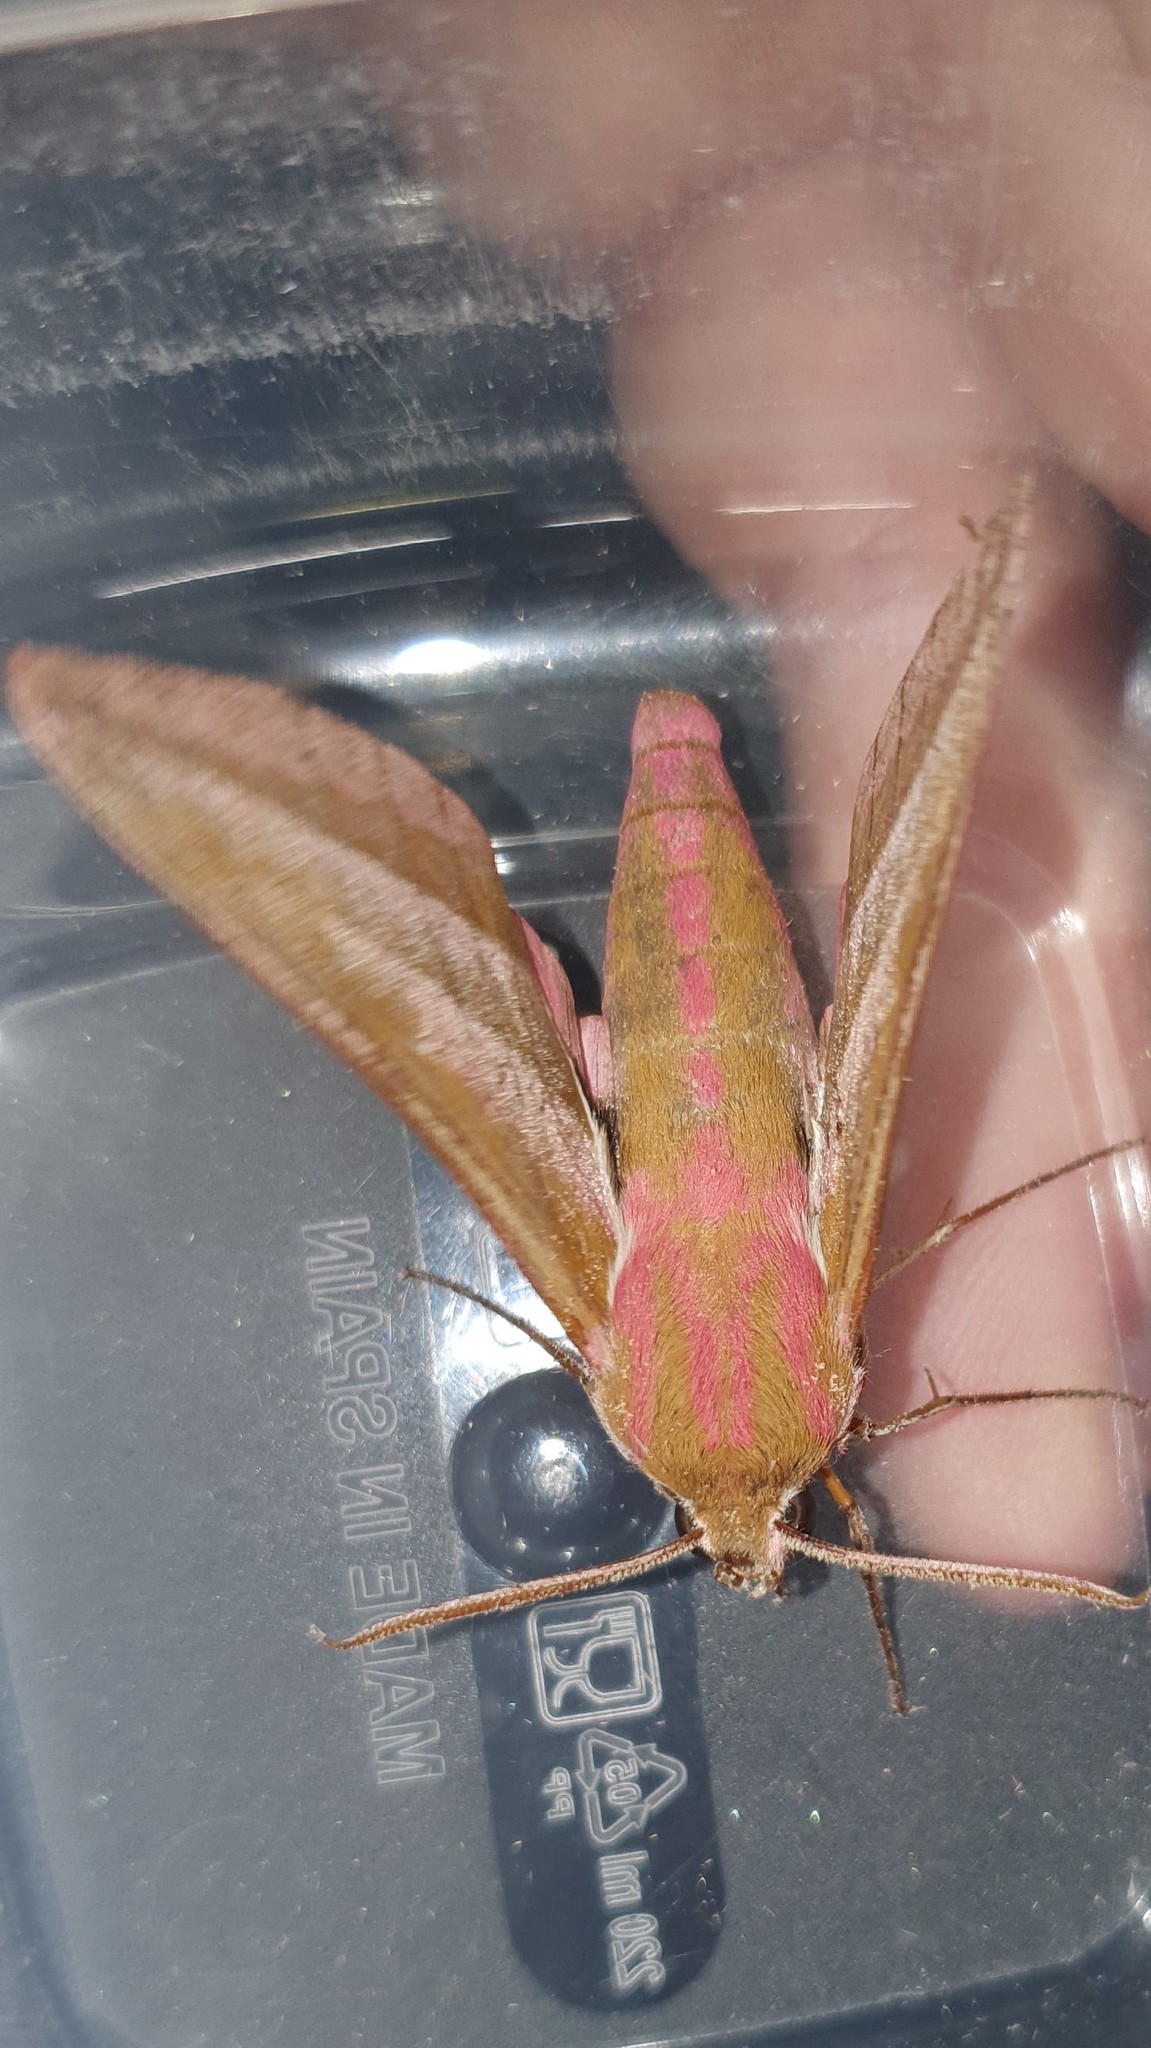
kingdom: Animalia
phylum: Arthropoda
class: Insecta
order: Lepidoptera
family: Sphingidae
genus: Deilephila
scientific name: Deilephila elpenor
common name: Elephant hawk-moth
